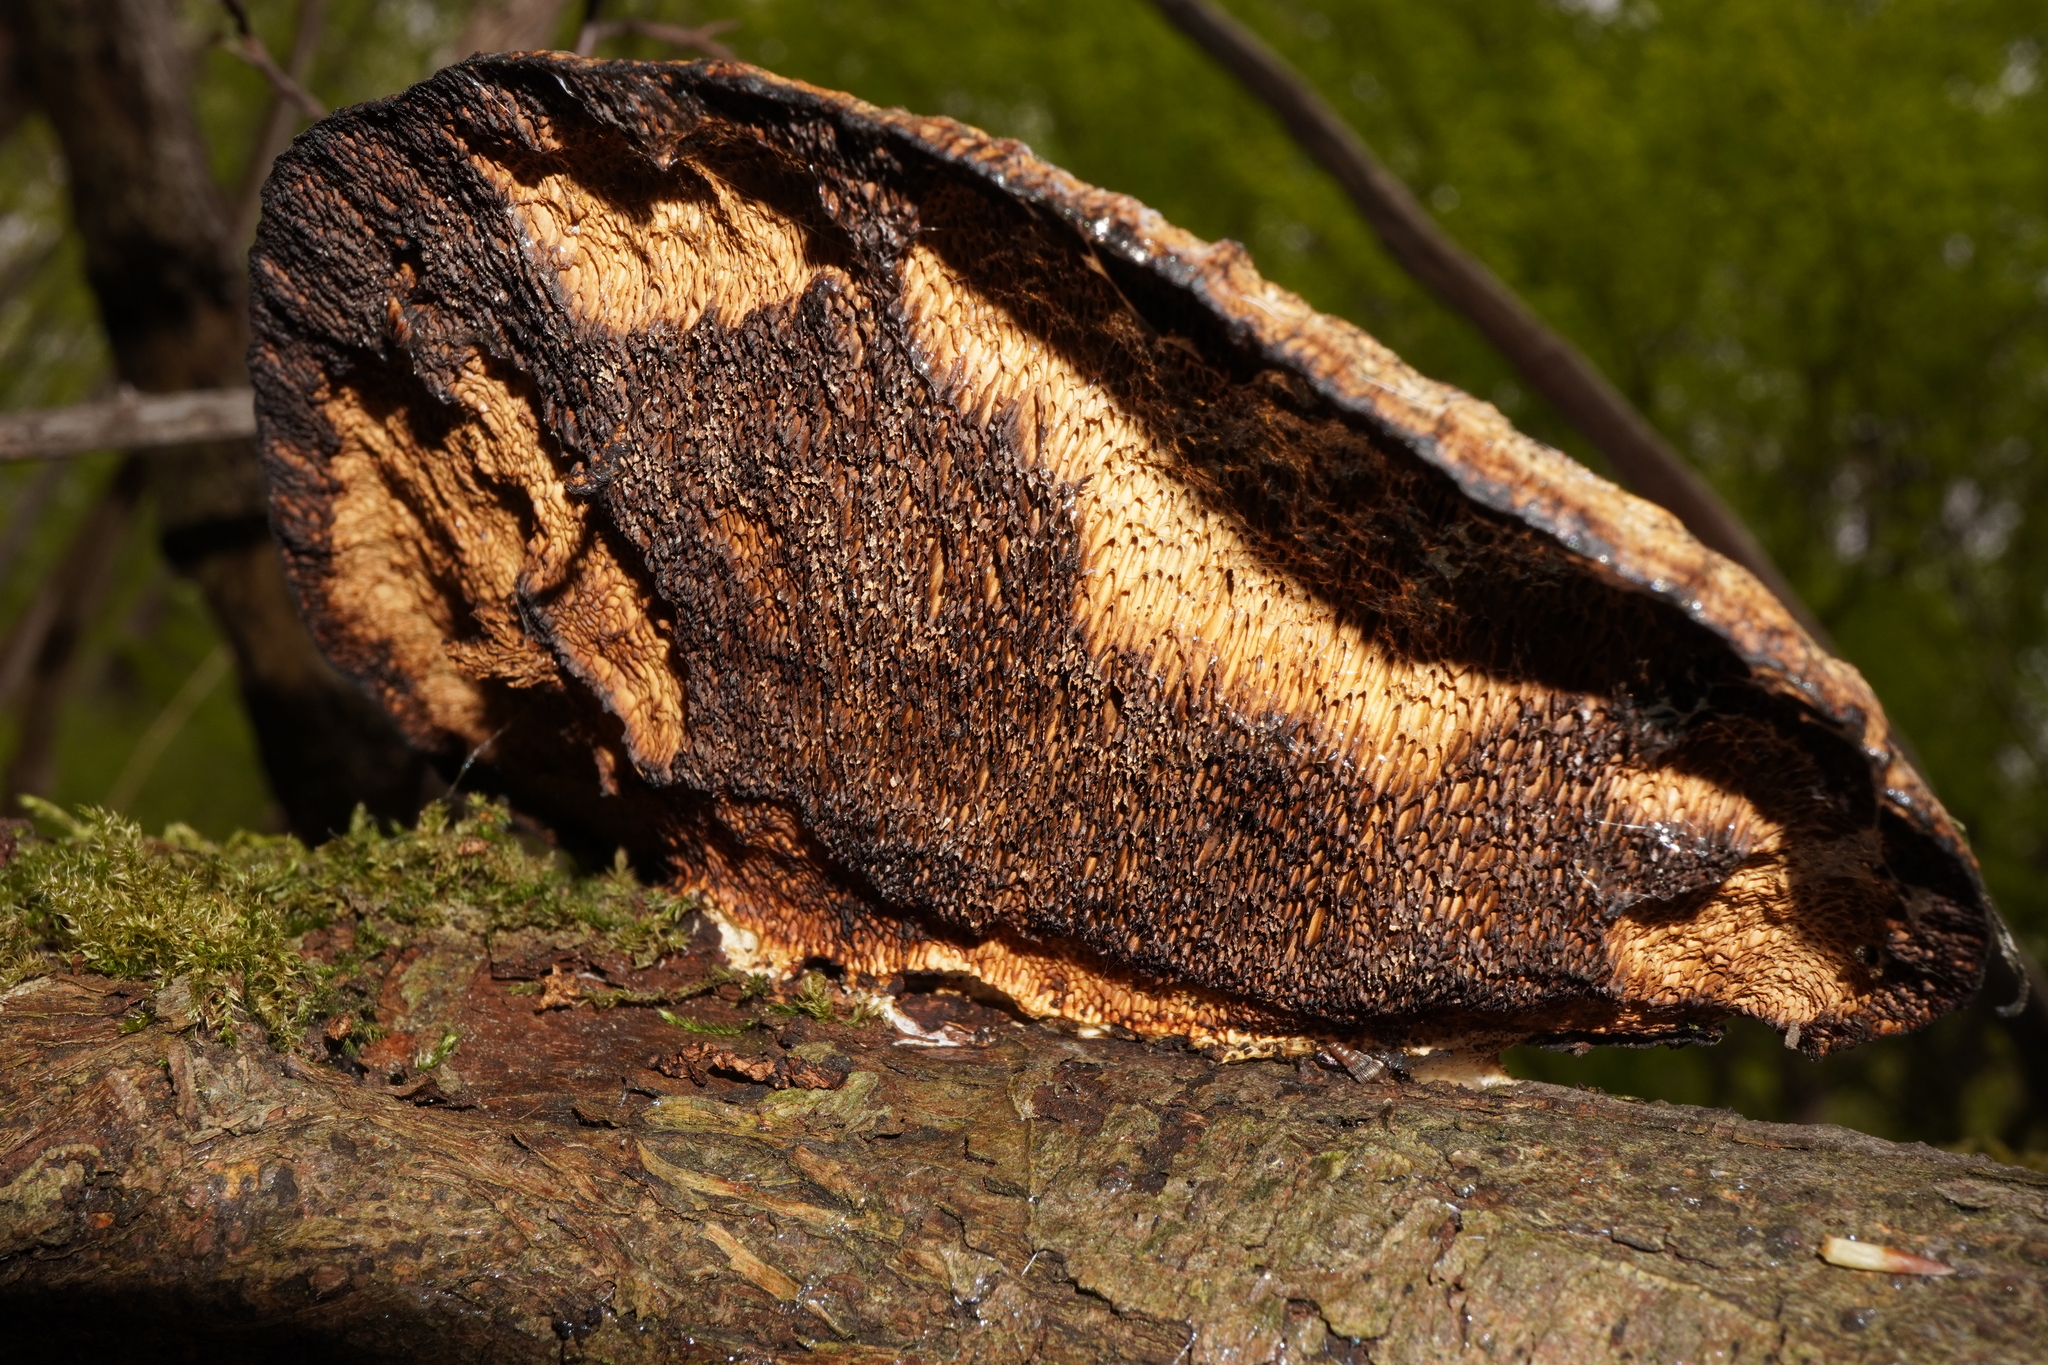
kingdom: Fungi
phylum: Basidiomycota
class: Agaricomycetes
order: Polyporales
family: Polyporaceae
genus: Daedaleopsis
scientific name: Daedaleopsis confragosa
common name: Blushing bracket
